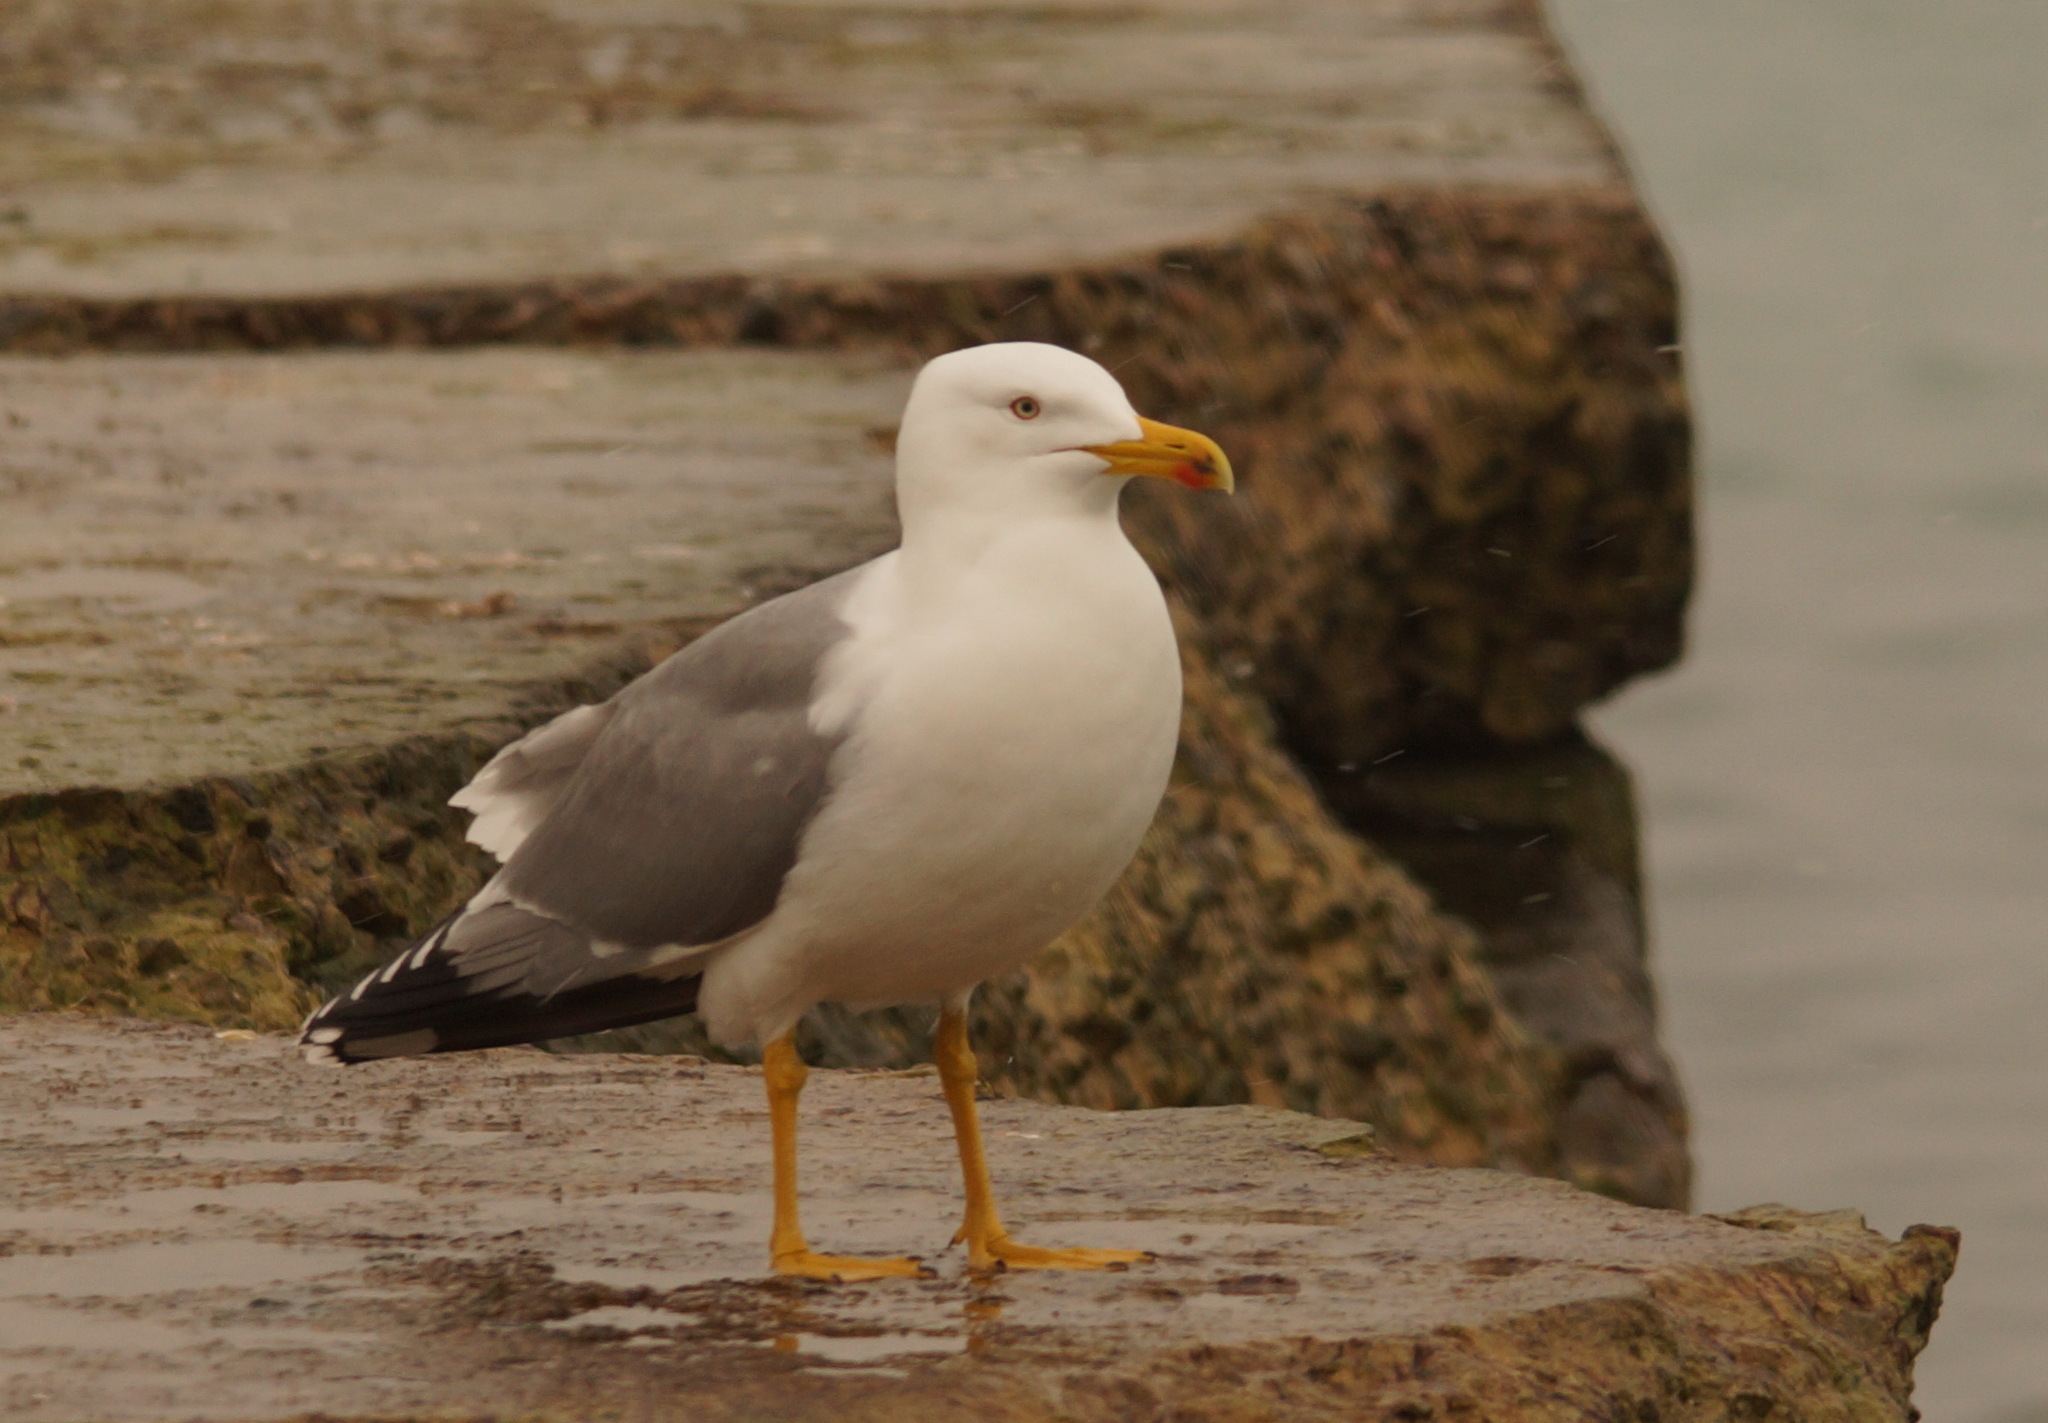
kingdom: Animalia
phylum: Chordata
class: Aves
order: Charadriiformes
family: Laridae
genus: Larus
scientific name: Larus michahellis
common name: Yellow-legged gull
